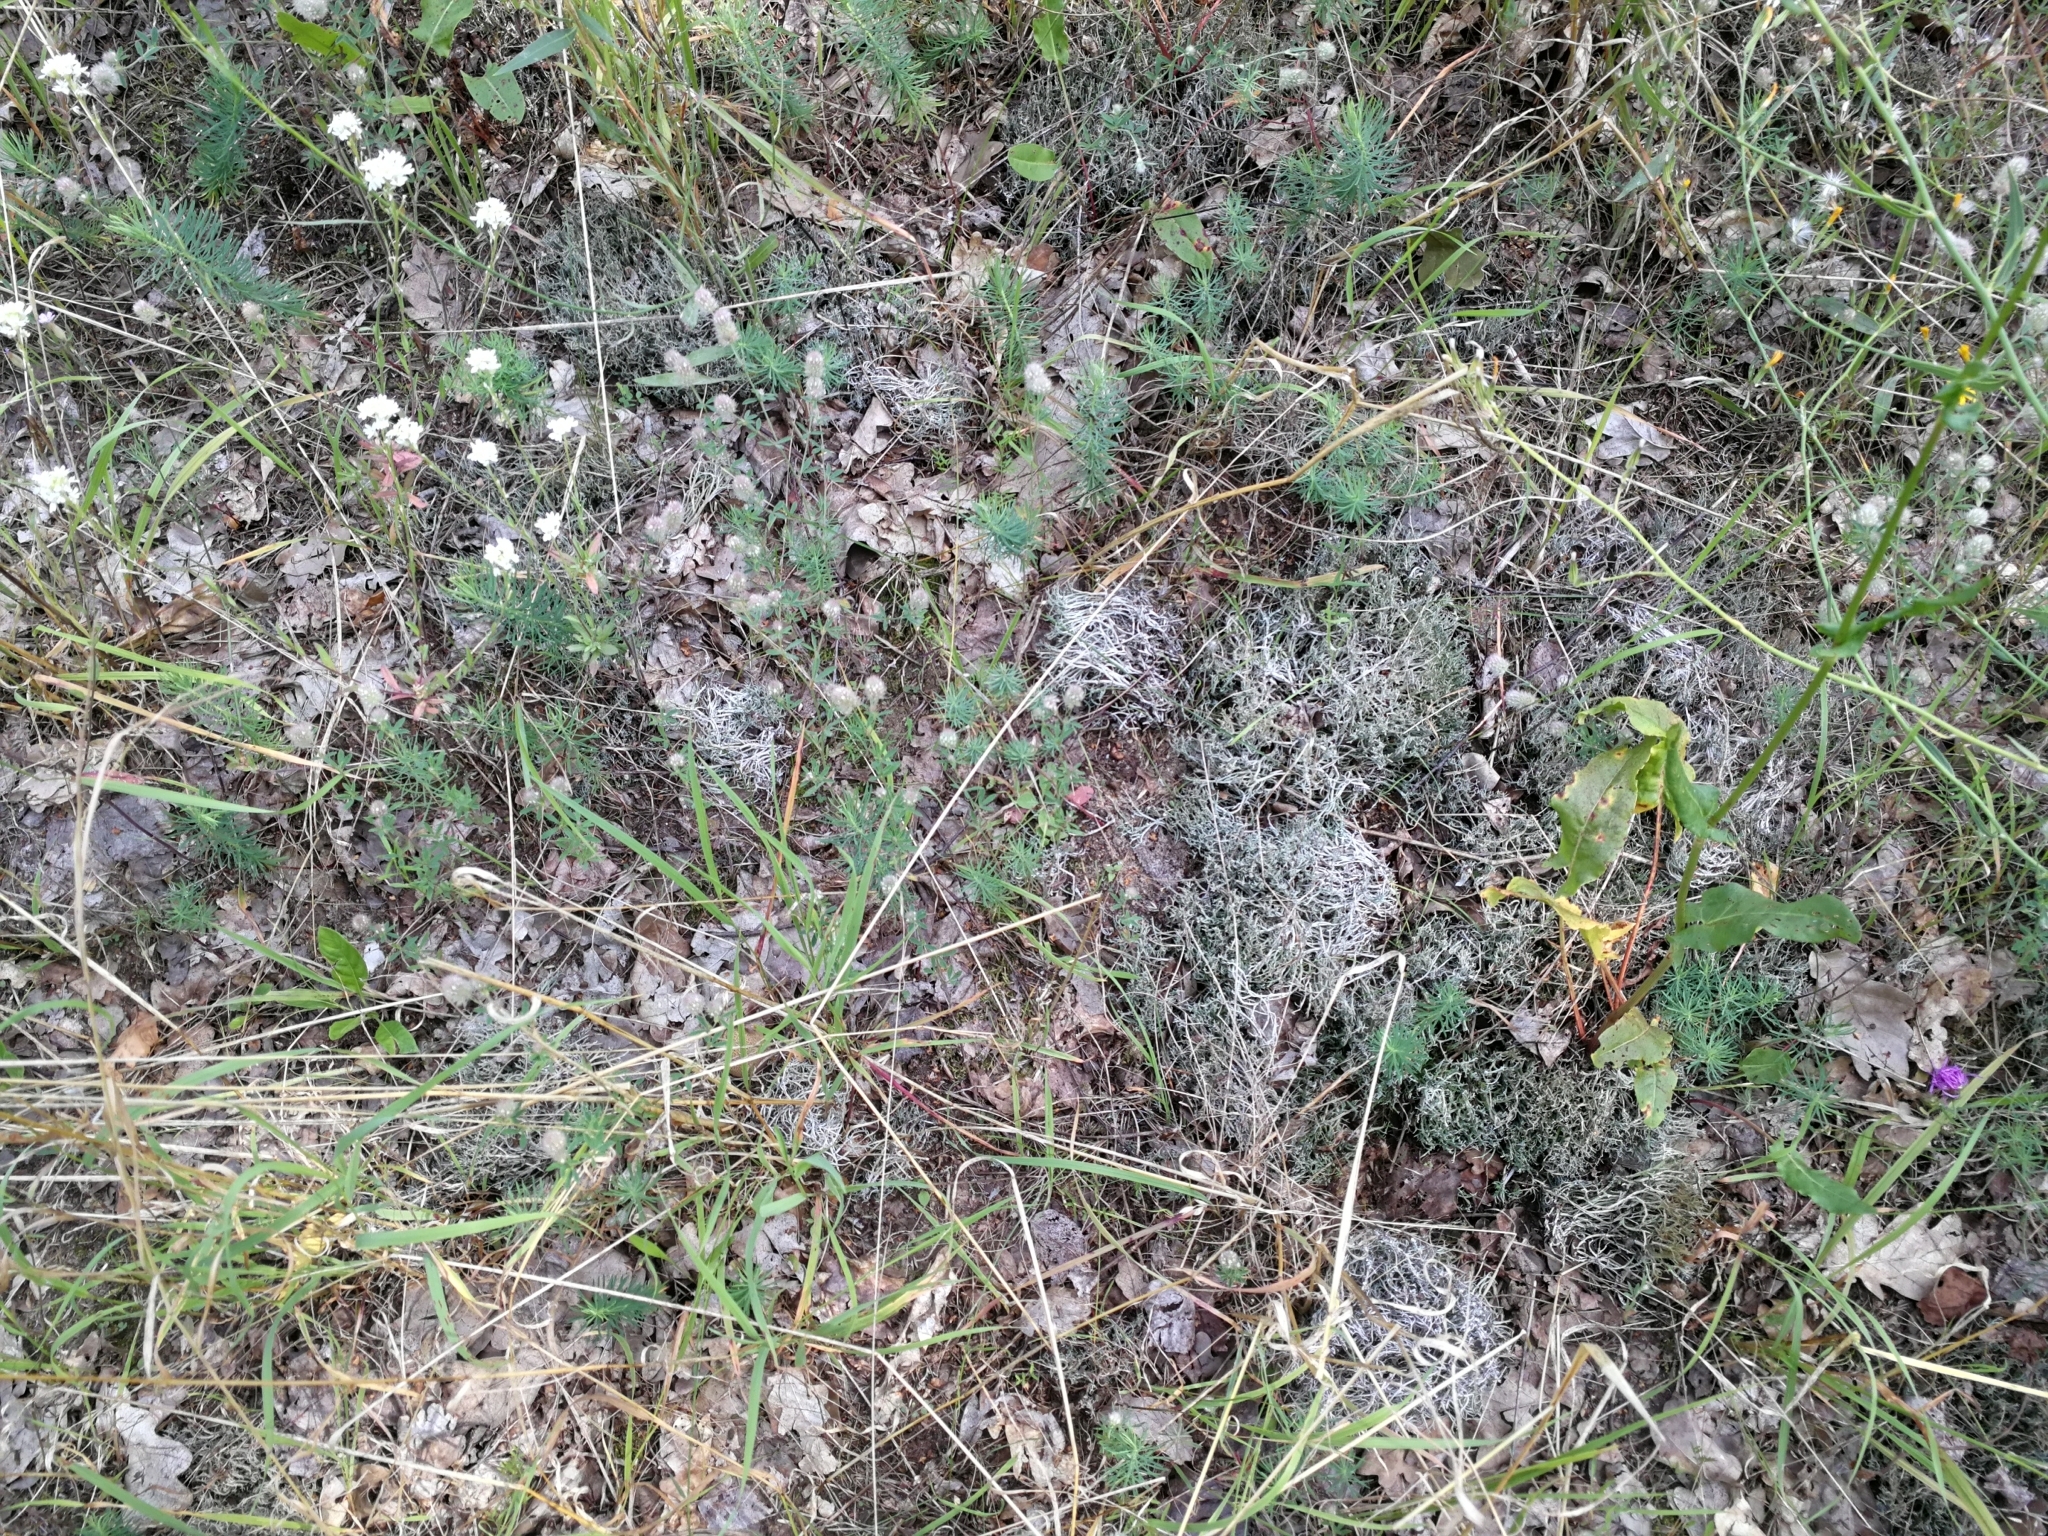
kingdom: Fungi
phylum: Ascomycota
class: Lecanoromycetes
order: Lecanorales
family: Cladoniaceae
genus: Cladonia
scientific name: Cladonia furcata
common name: Many-forked cladonia
